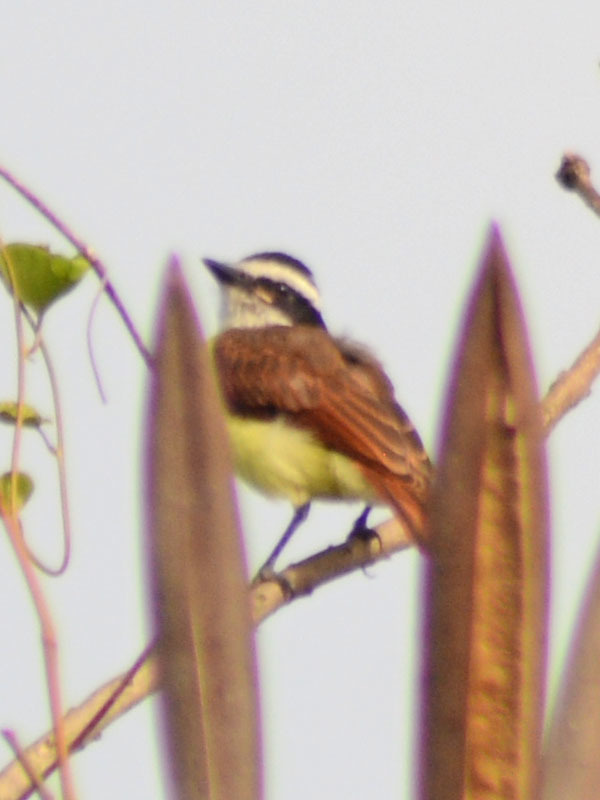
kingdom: Animalia
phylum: Chordata
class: Aves
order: Passeriformes
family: Tyrannidae
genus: Pitangus
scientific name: Pitangus sulphuratus
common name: Great kiskadee
